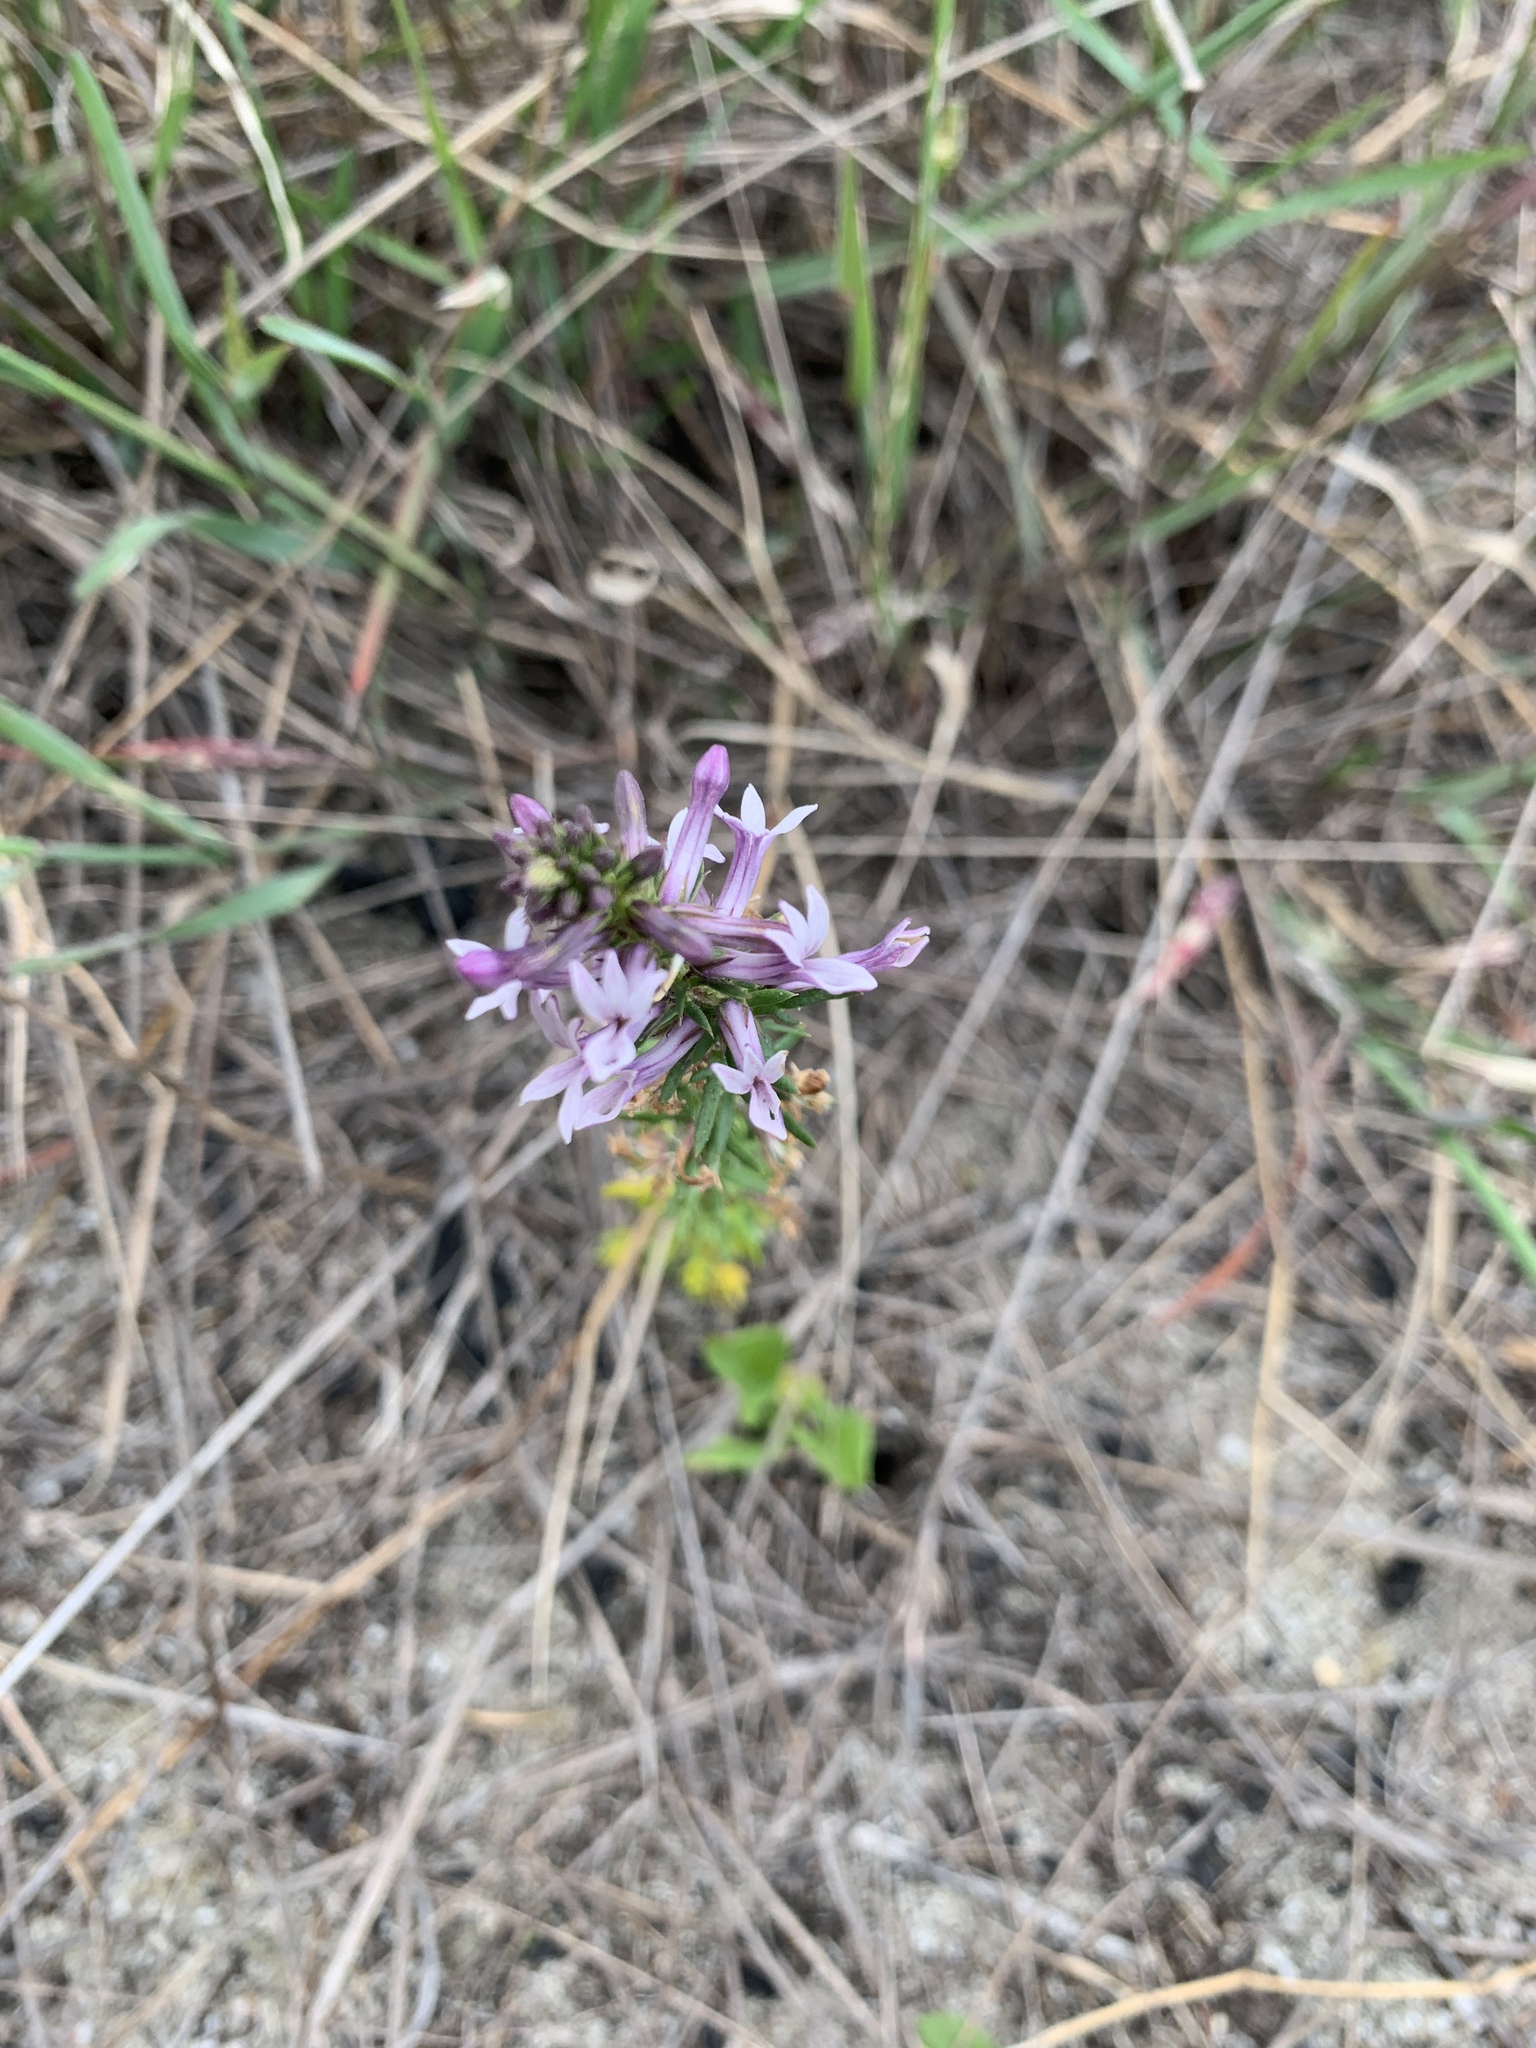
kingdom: Plantae
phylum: Tracheophyta
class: Magnoliopsida
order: Asterales
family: Campanulaceae
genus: Cyphia
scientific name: Cyphia bulbosa
